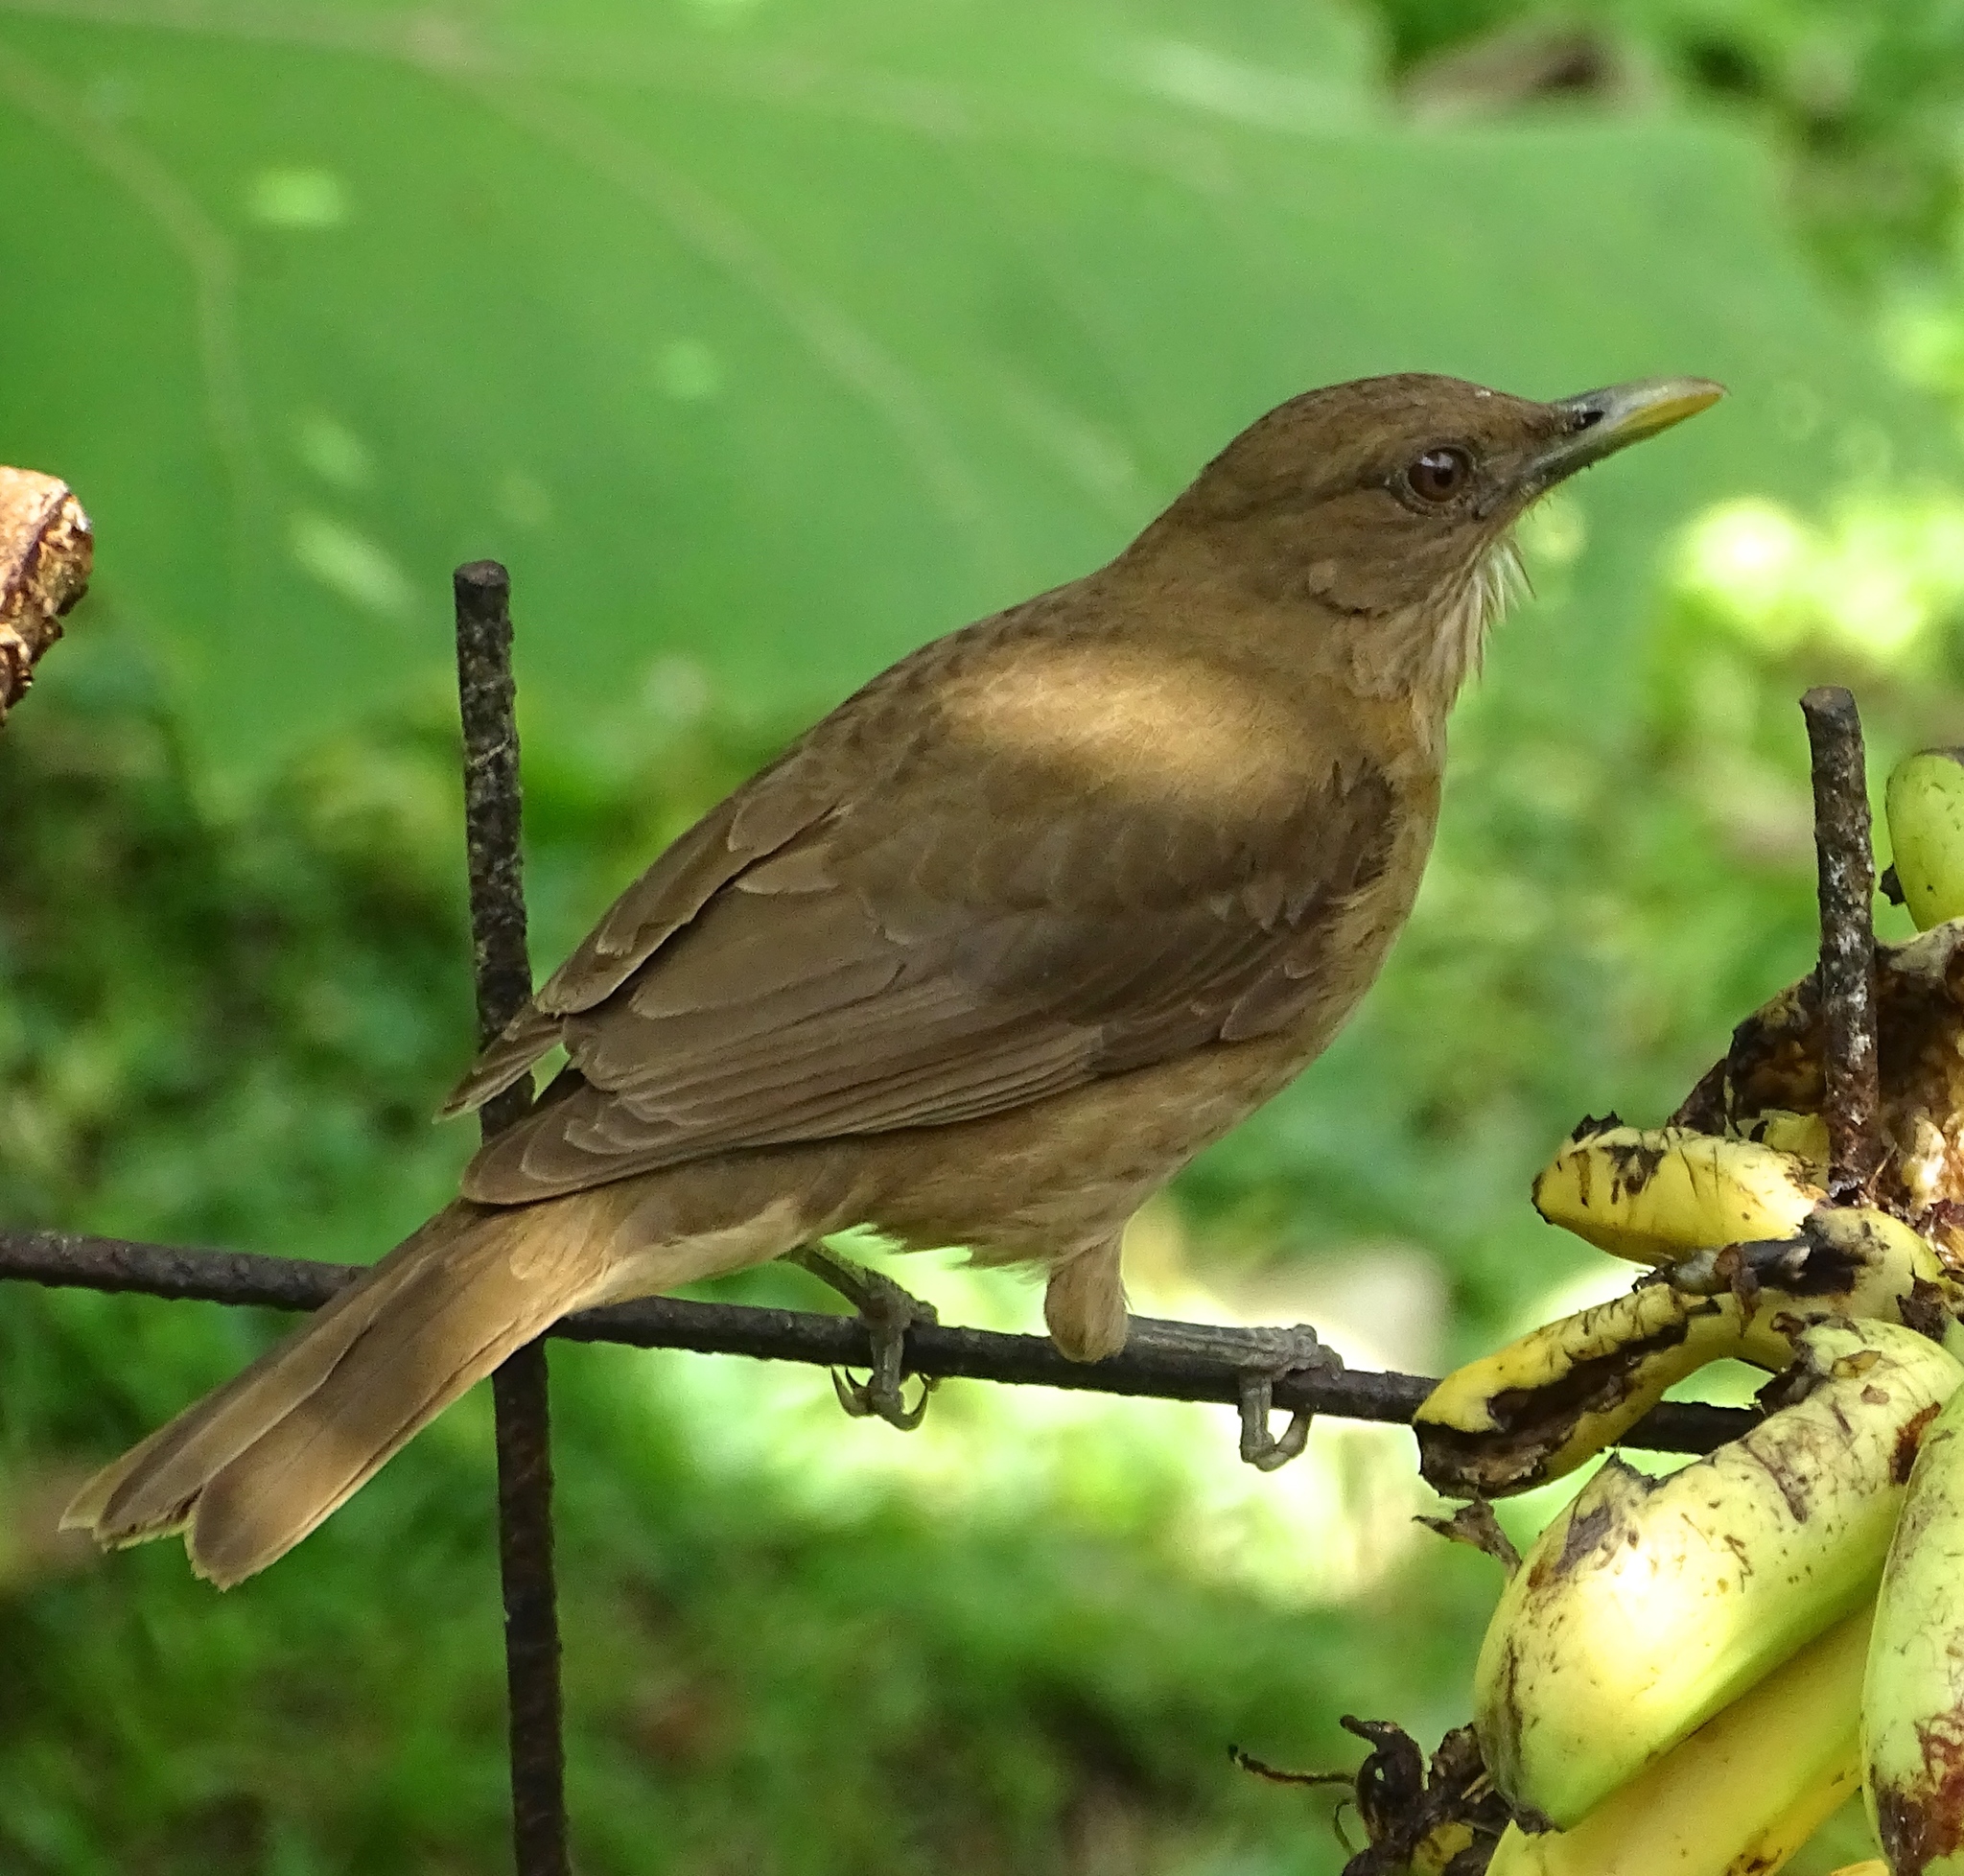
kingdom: Animalia
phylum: Chordata
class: Aves
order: Passeriformes
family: Turdidae
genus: Turdus
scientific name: Turdus grayi
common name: Clay-colored thrush
